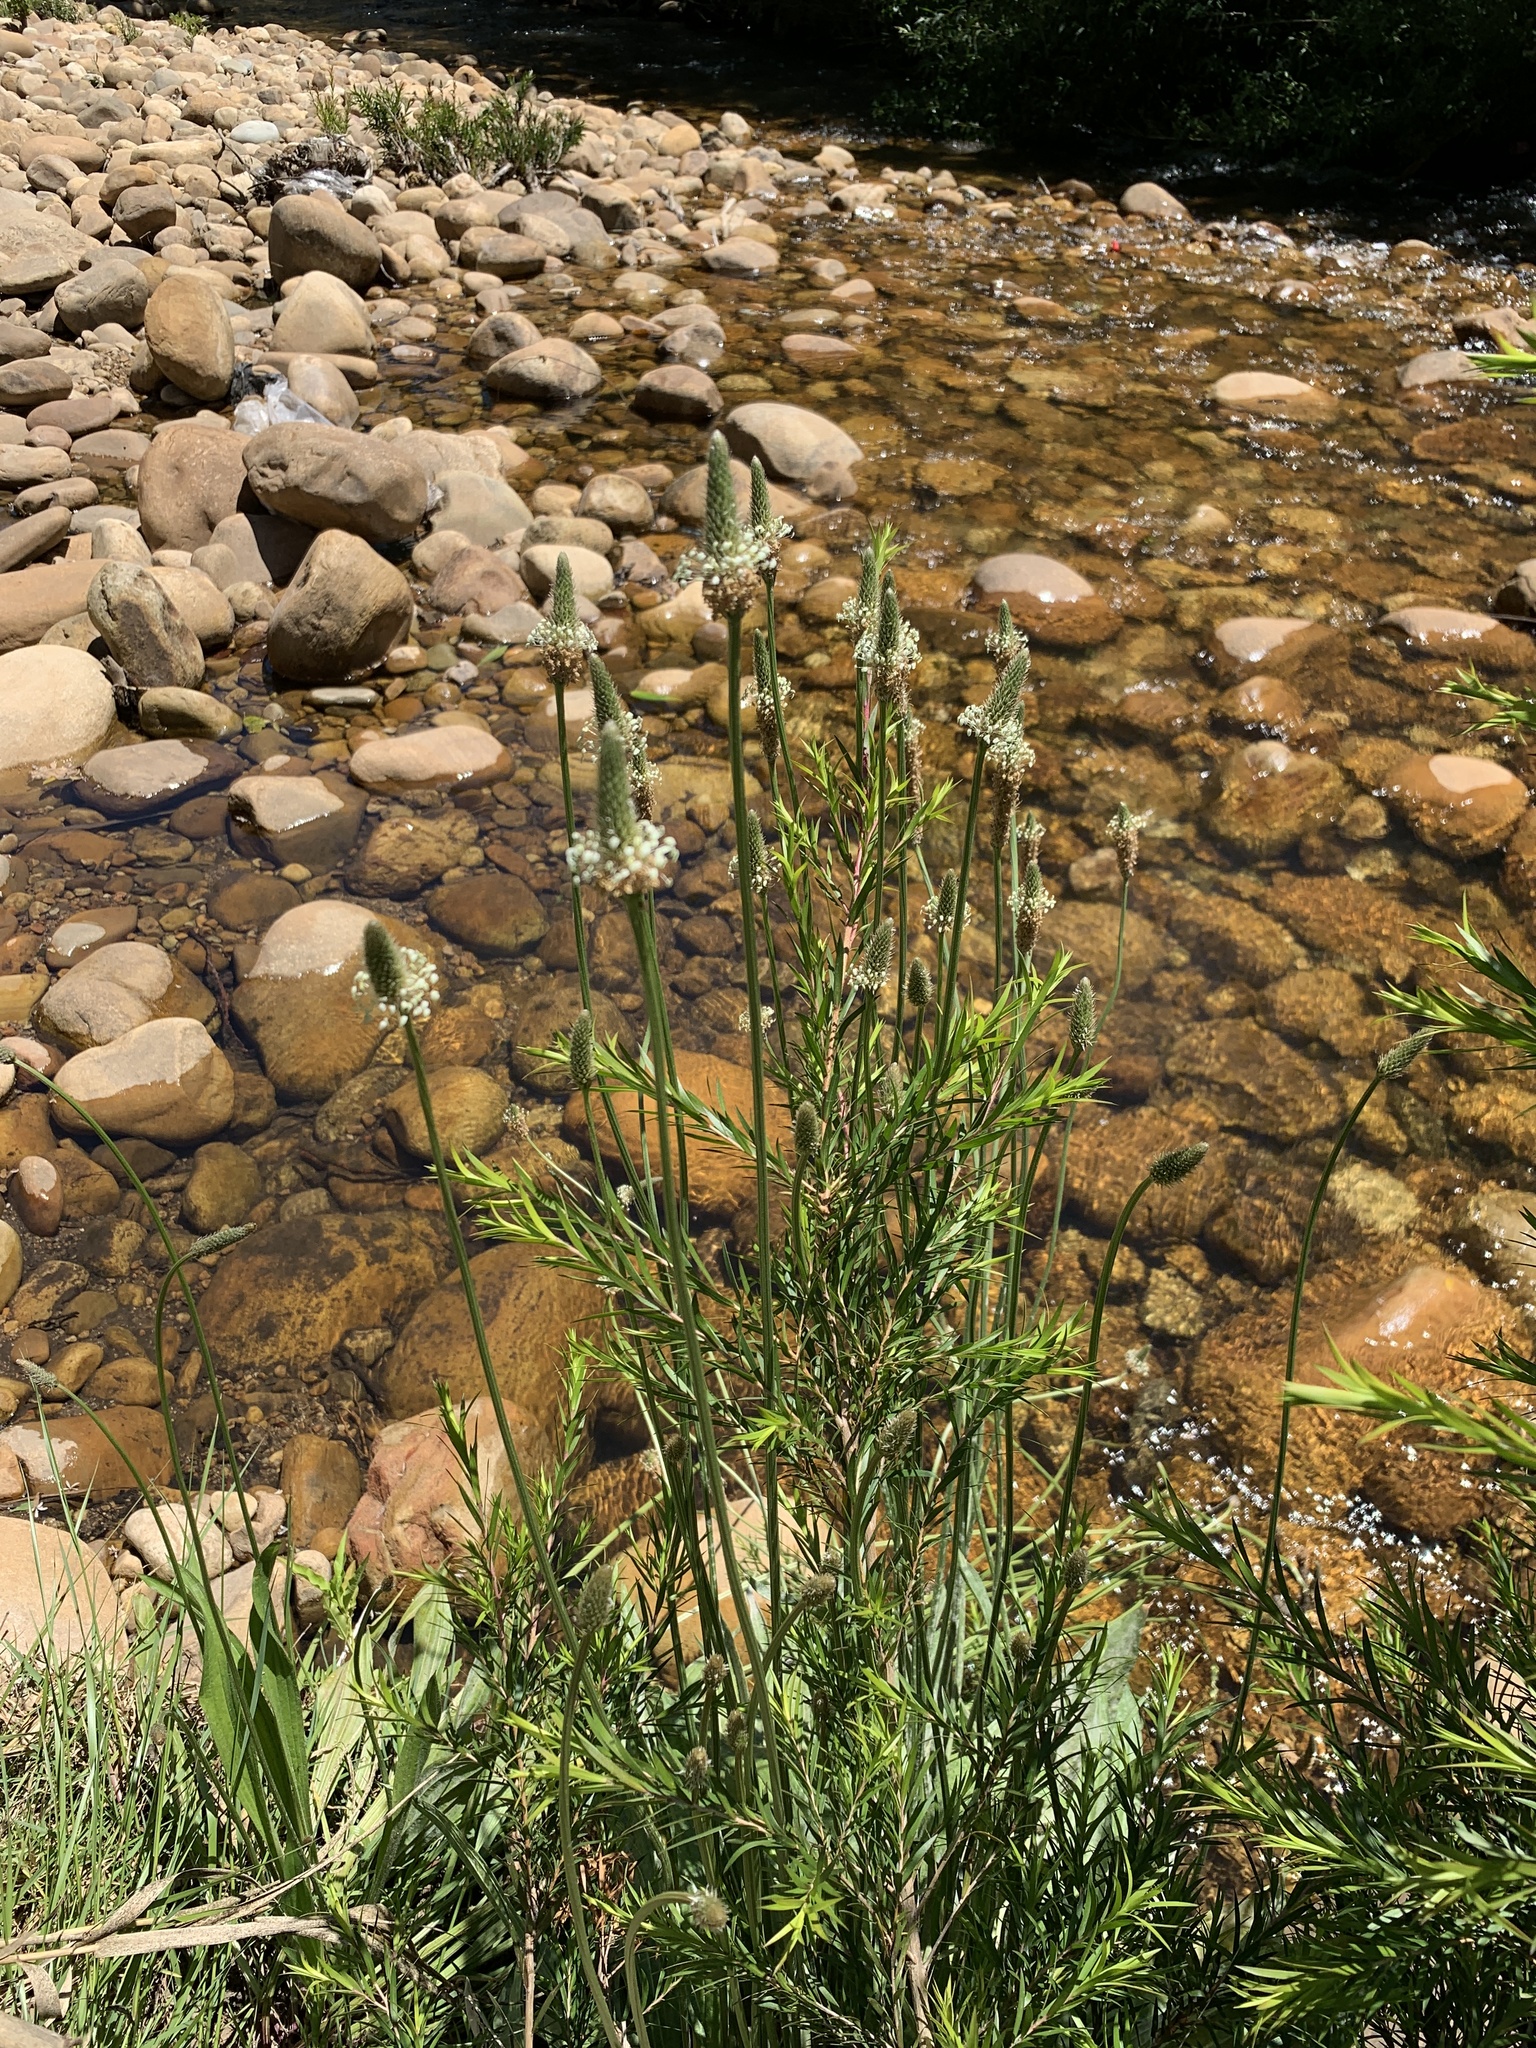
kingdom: Plantae
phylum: Tracheophyta
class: Magnoliopsida
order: Lamiales
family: Plantaginaceae
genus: Plantago
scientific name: Plantago lanceolata
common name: Ribwort plantain
